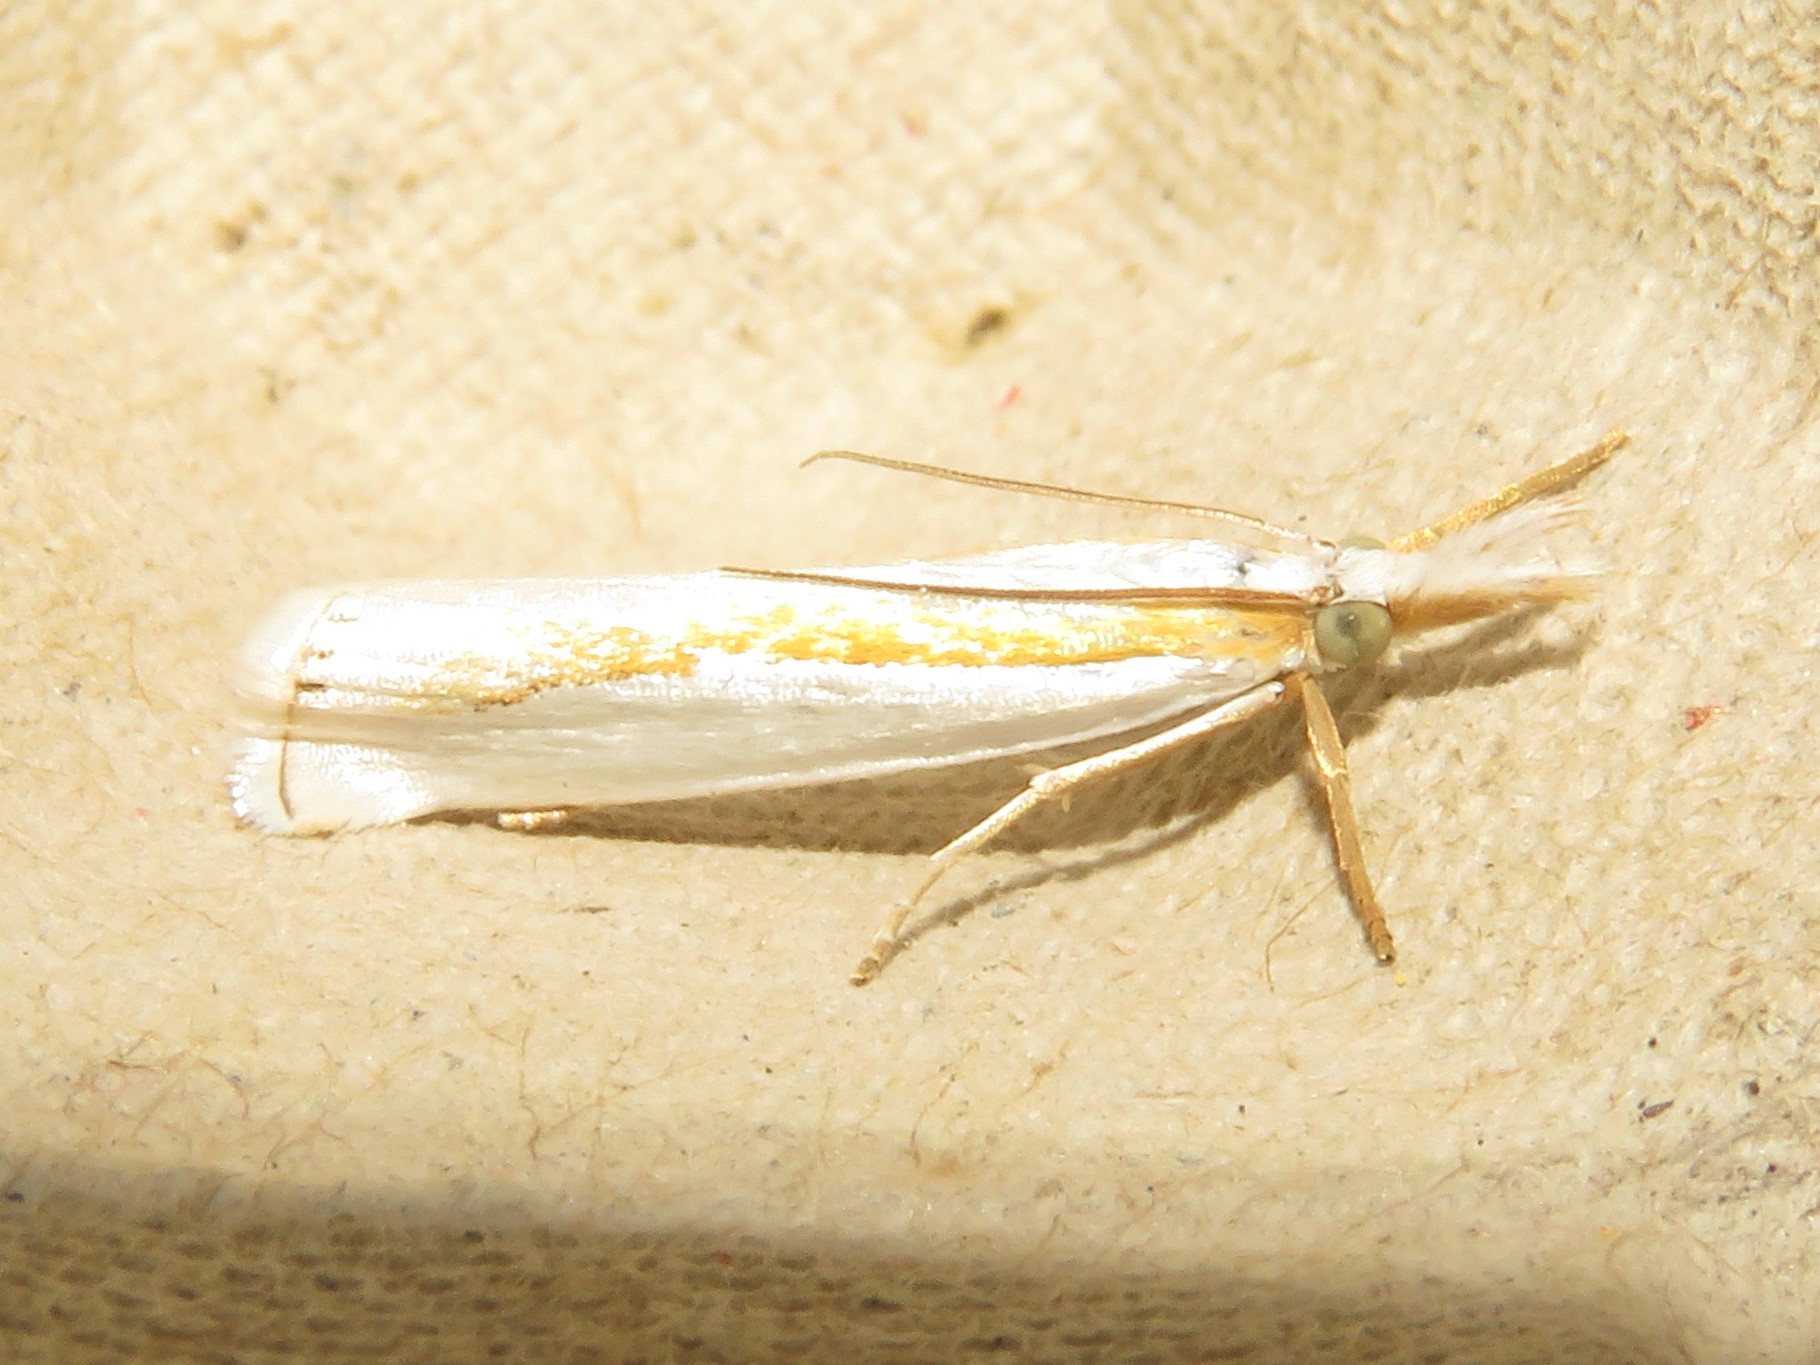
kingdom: Animalia
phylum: Arthropoda
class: Insecta
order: Lepidoptera
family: Crambidae
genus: Crambus
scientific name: Crambus girardellus
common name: Girard's grass-veneer
